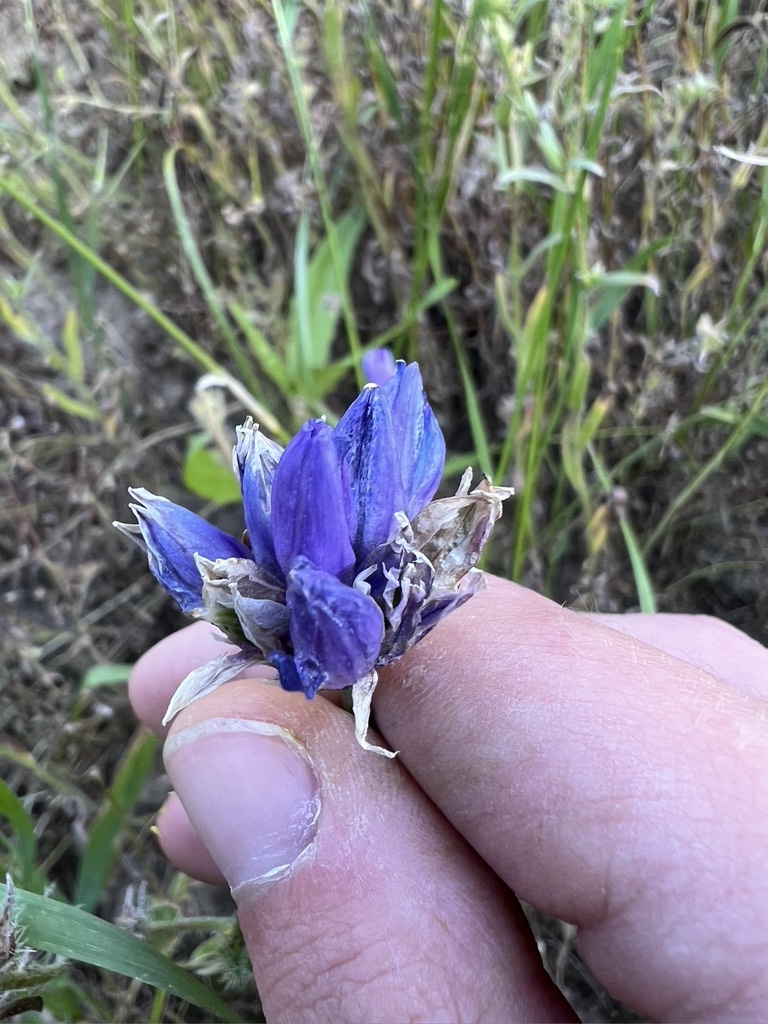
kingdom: Plantae
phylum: Tracheophyta
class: Liliopsida
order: Asparagales
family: Asparagaceae
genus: Dipterostemon
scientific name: Dipterostemon capitatus
